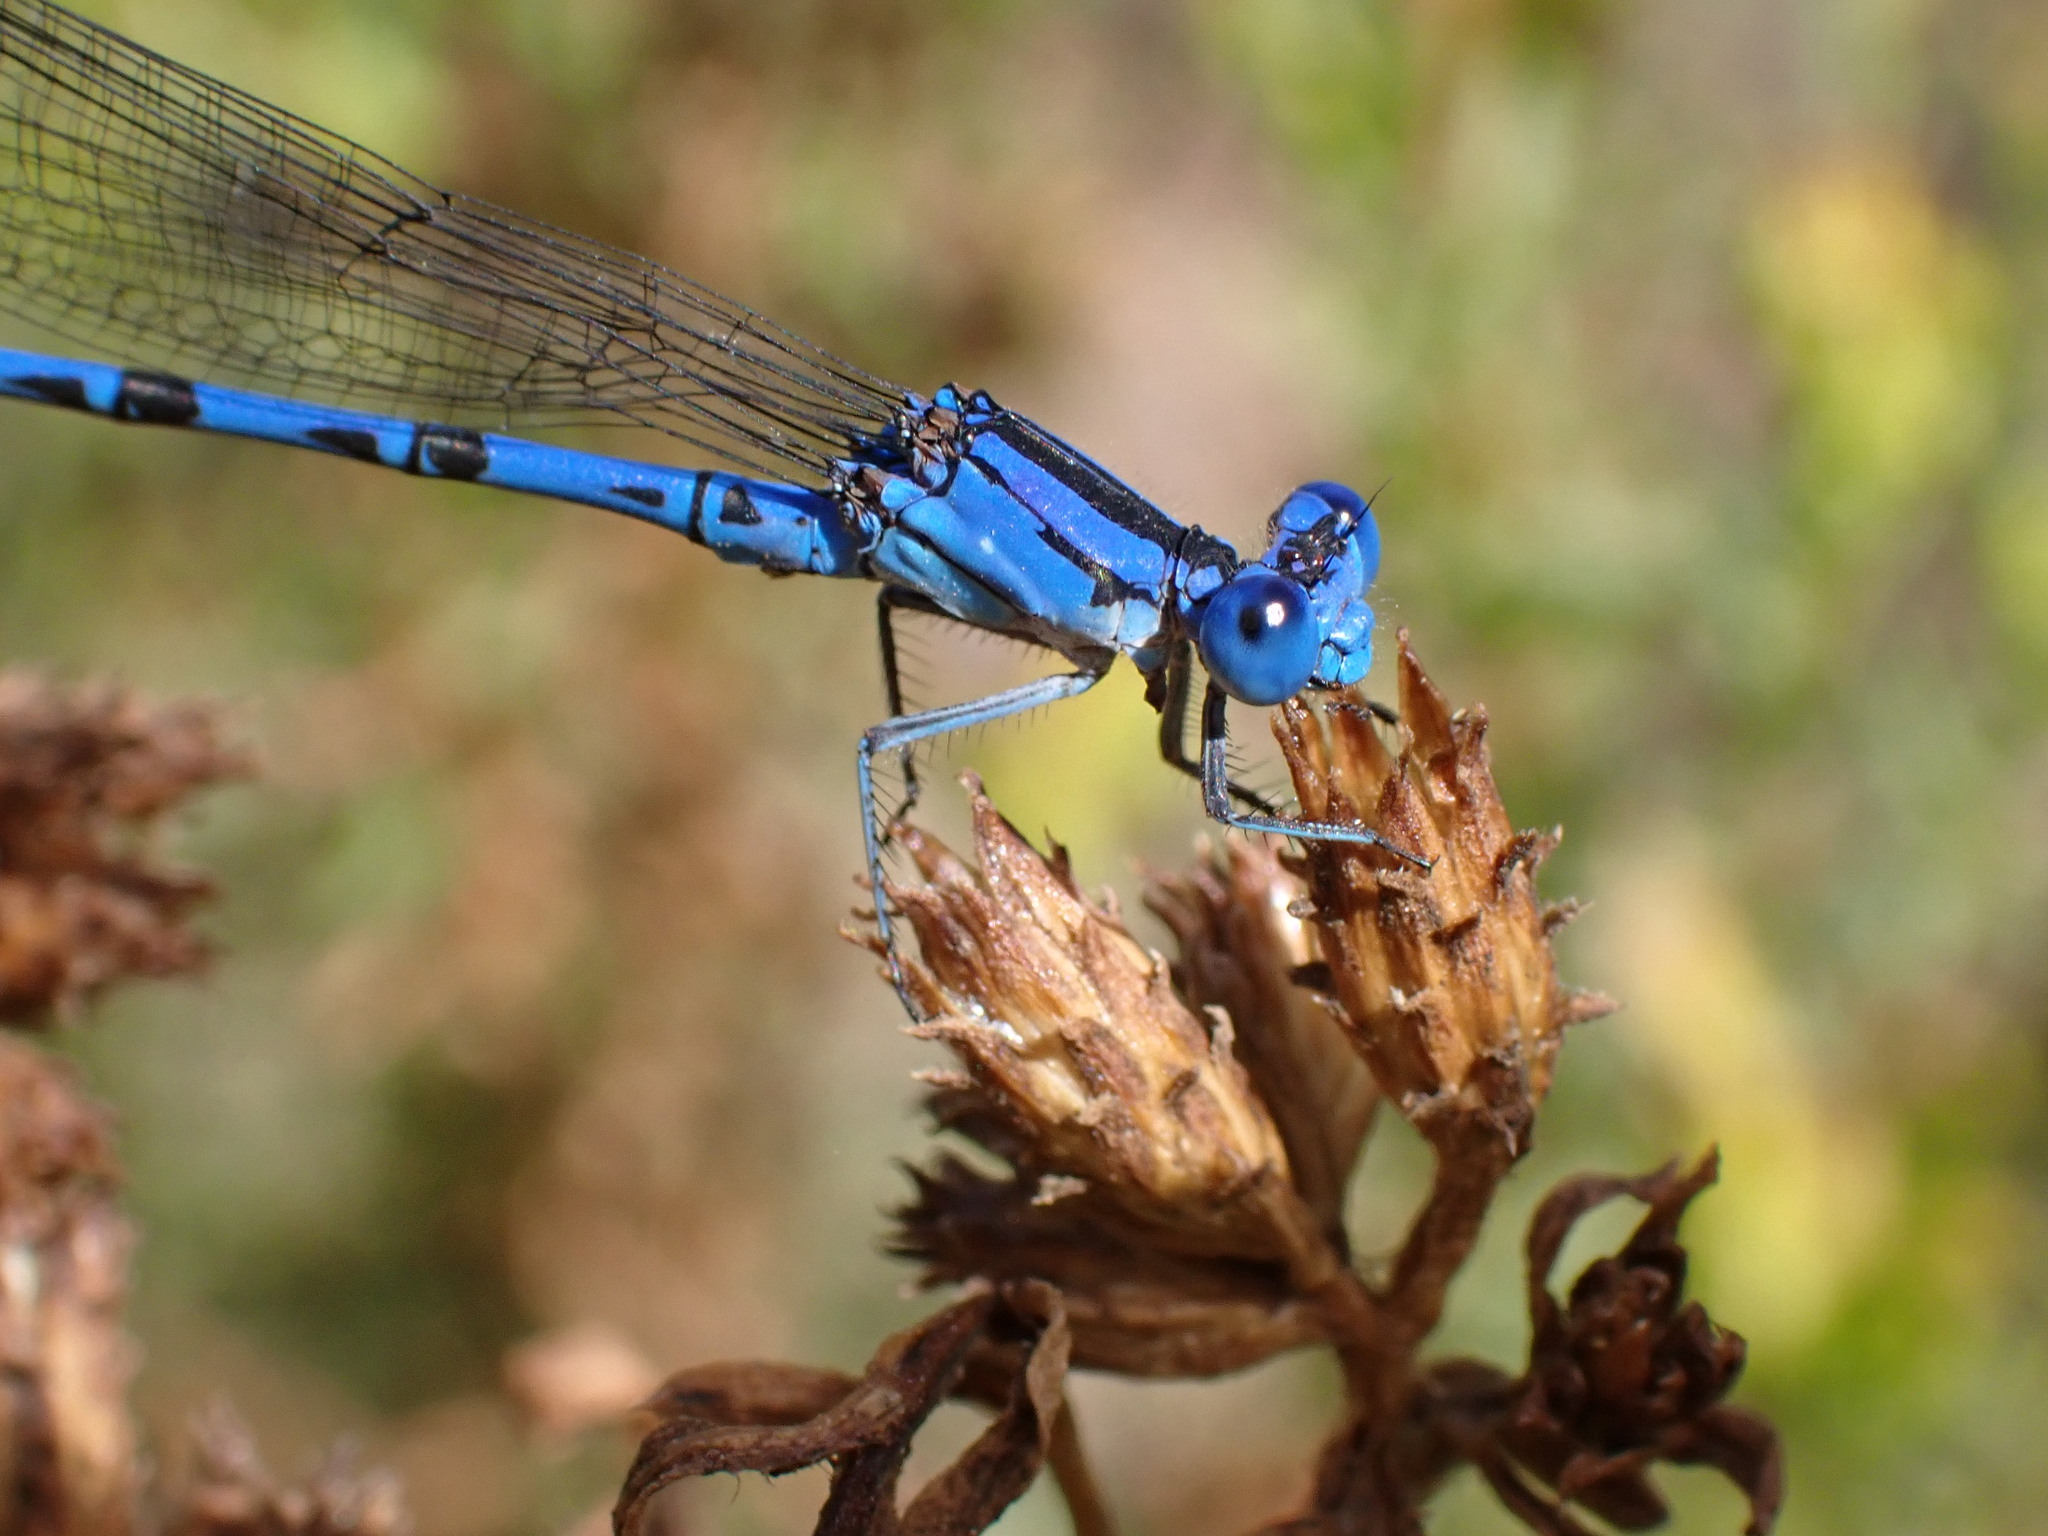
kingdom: Animalia
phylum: Arthropoda
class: Insecta
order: Odonata
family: Coenagrionidae
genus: Argia
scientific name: Argia vivida
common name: Vivid dancer
